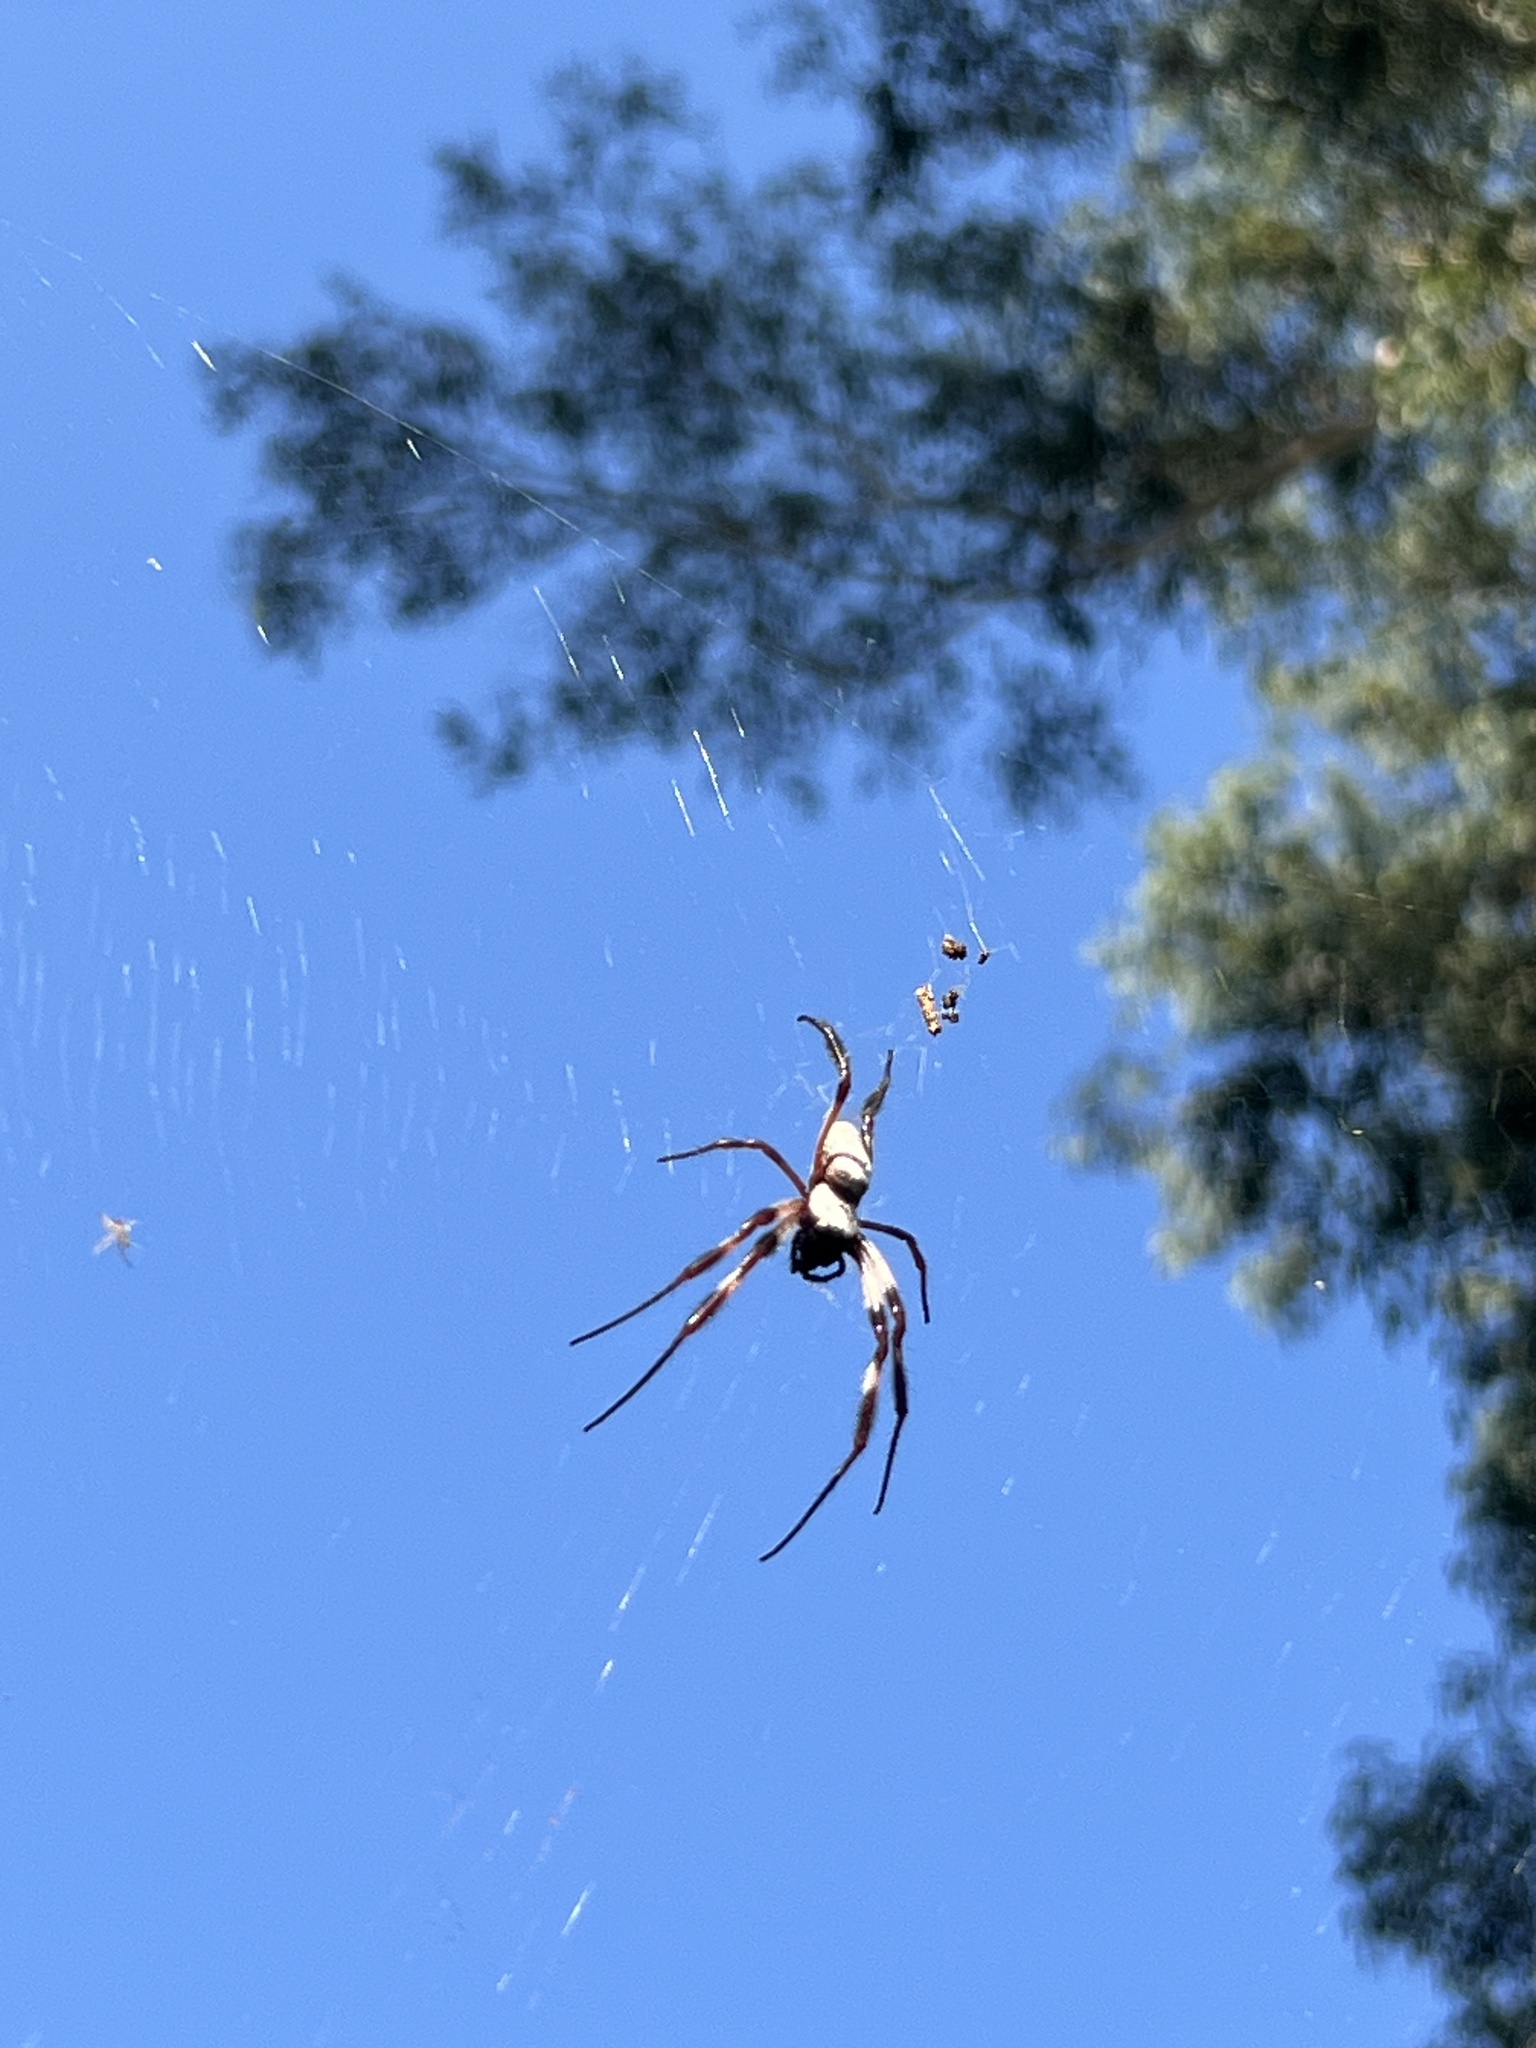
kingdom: Animalia
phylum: Arthropoda
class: Arachnida
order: Araneae
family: Araneidae
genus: Trichonephila
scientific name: Trichonephila edulis
